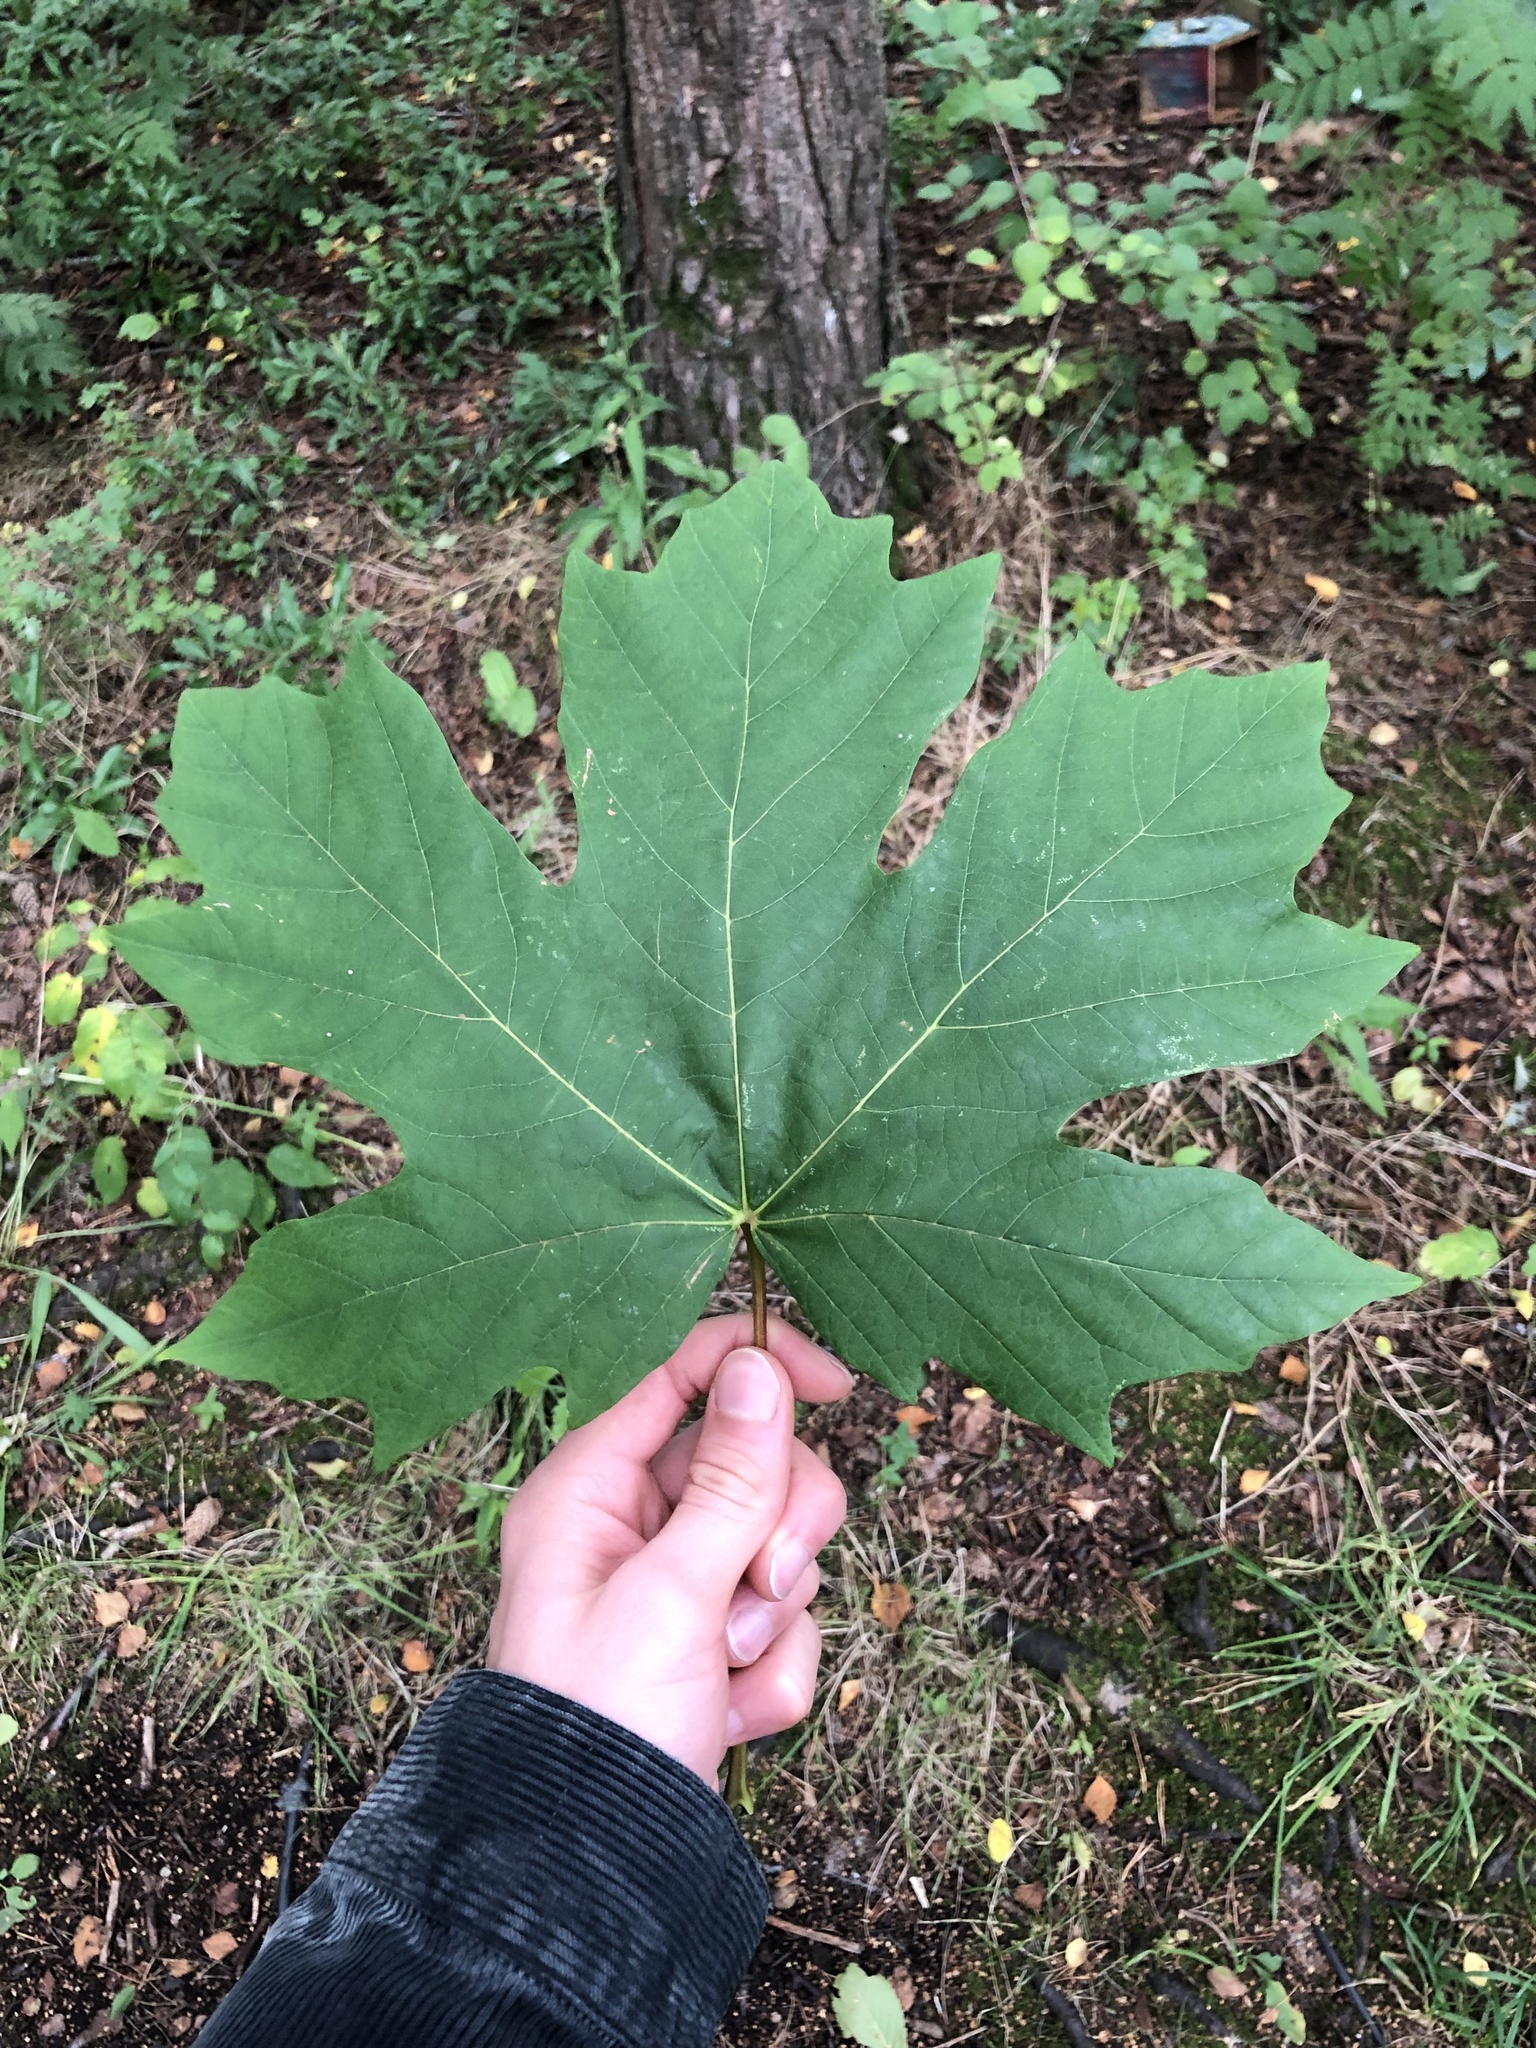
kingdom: Plantae
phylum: Tracheophyta
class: Magnoliopsida
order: Sapindales
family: Sapindaceae
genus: Acer
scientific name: Acer platanoides
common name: Norway maple
